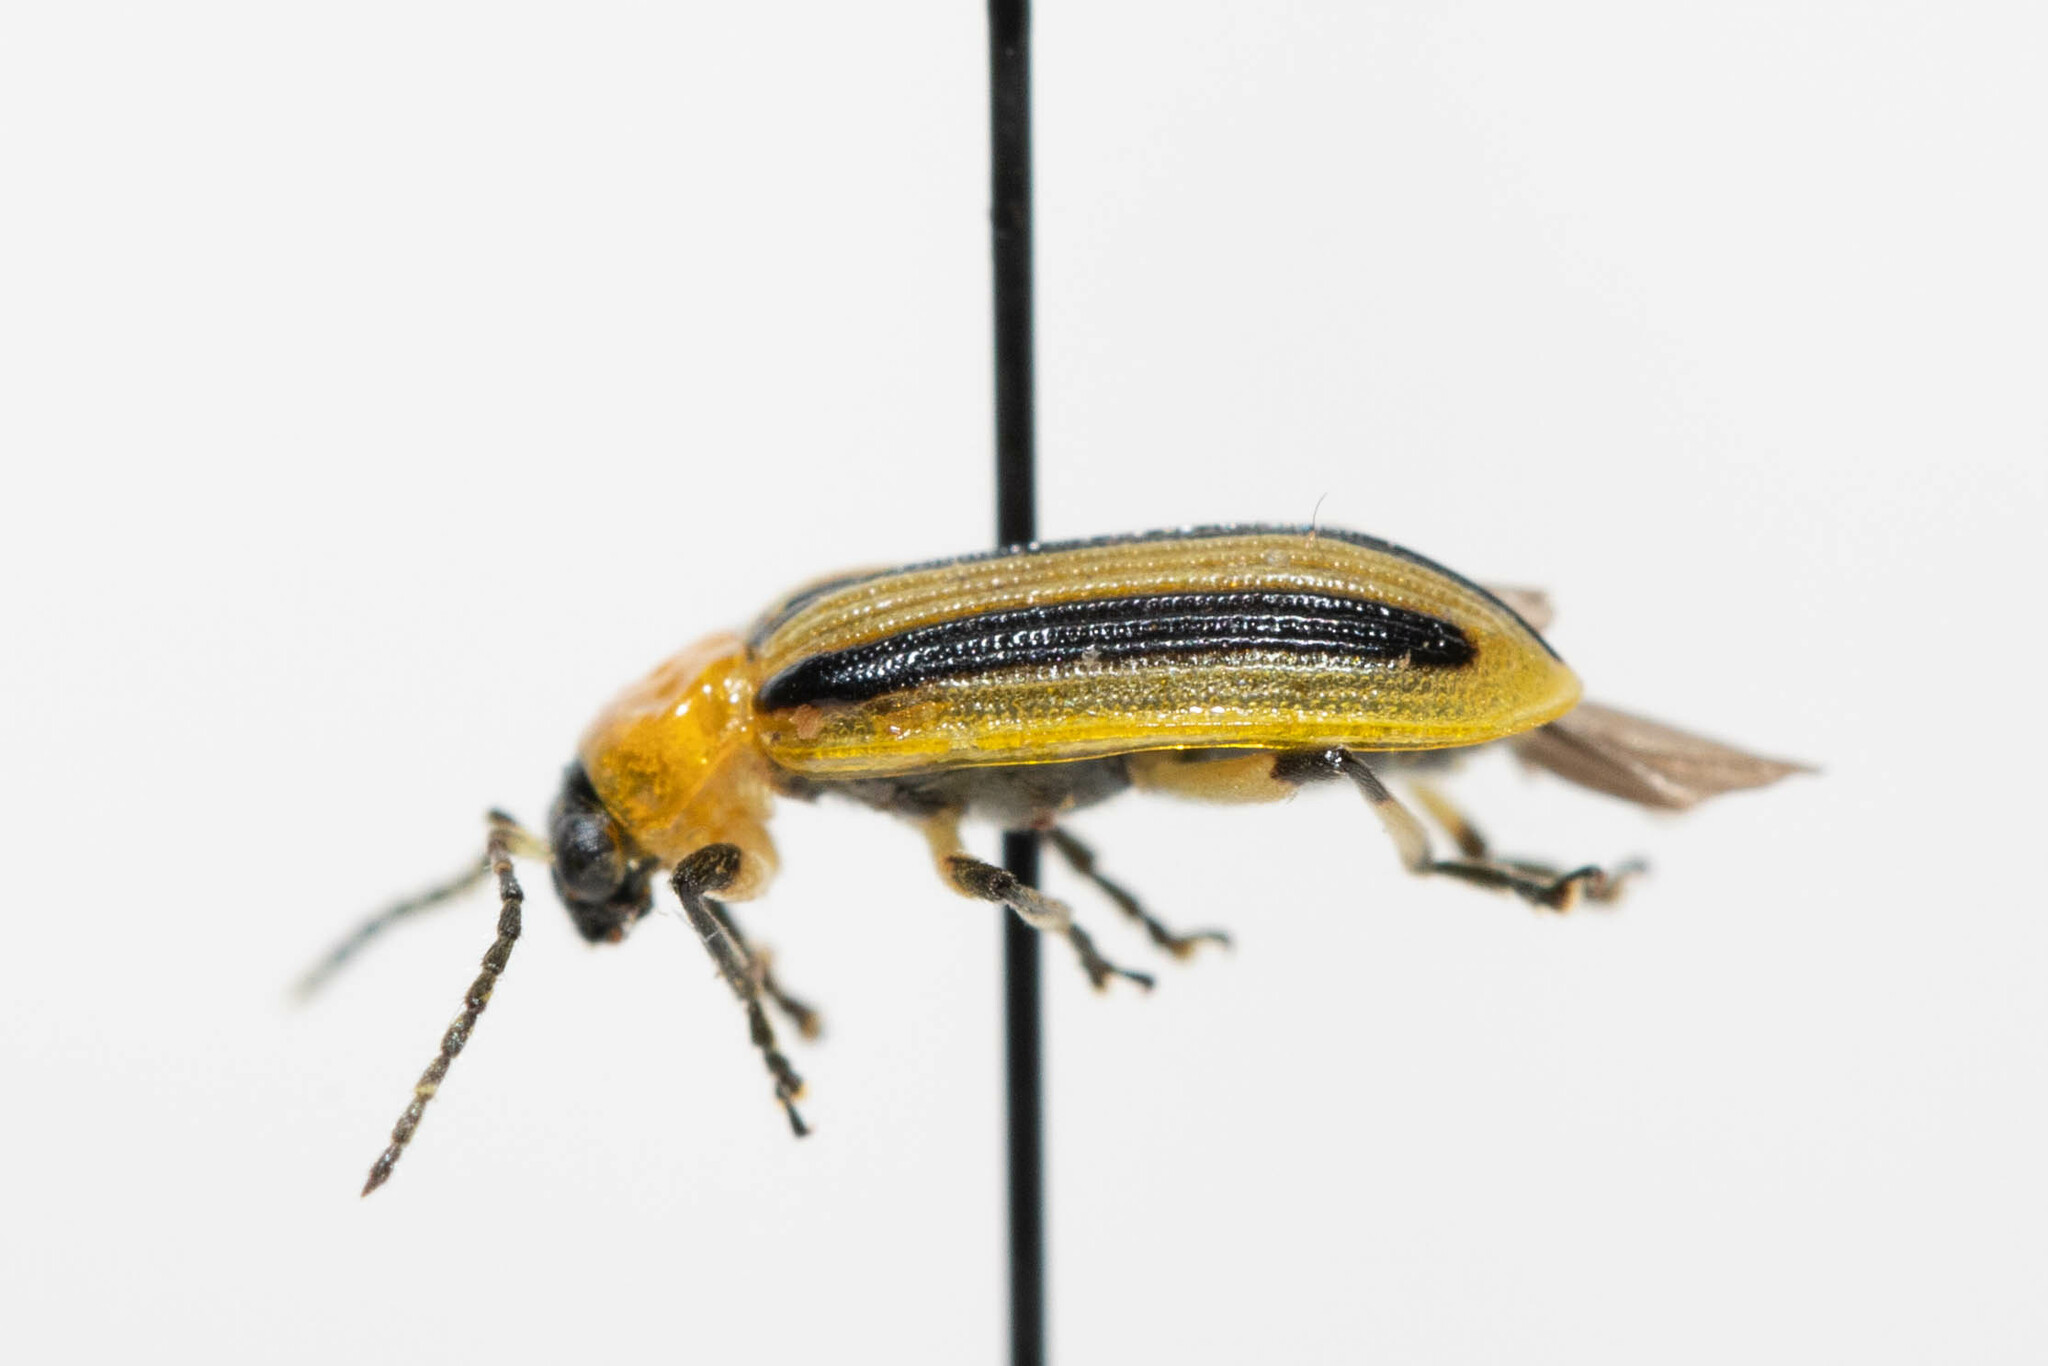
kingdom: Animalia
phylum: Arthropoda
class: Insecta
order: Coleoptera
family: Chrysomelidae
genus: Acalymma
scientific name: Acalymma vittatum
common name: Striped cucumber beetle
